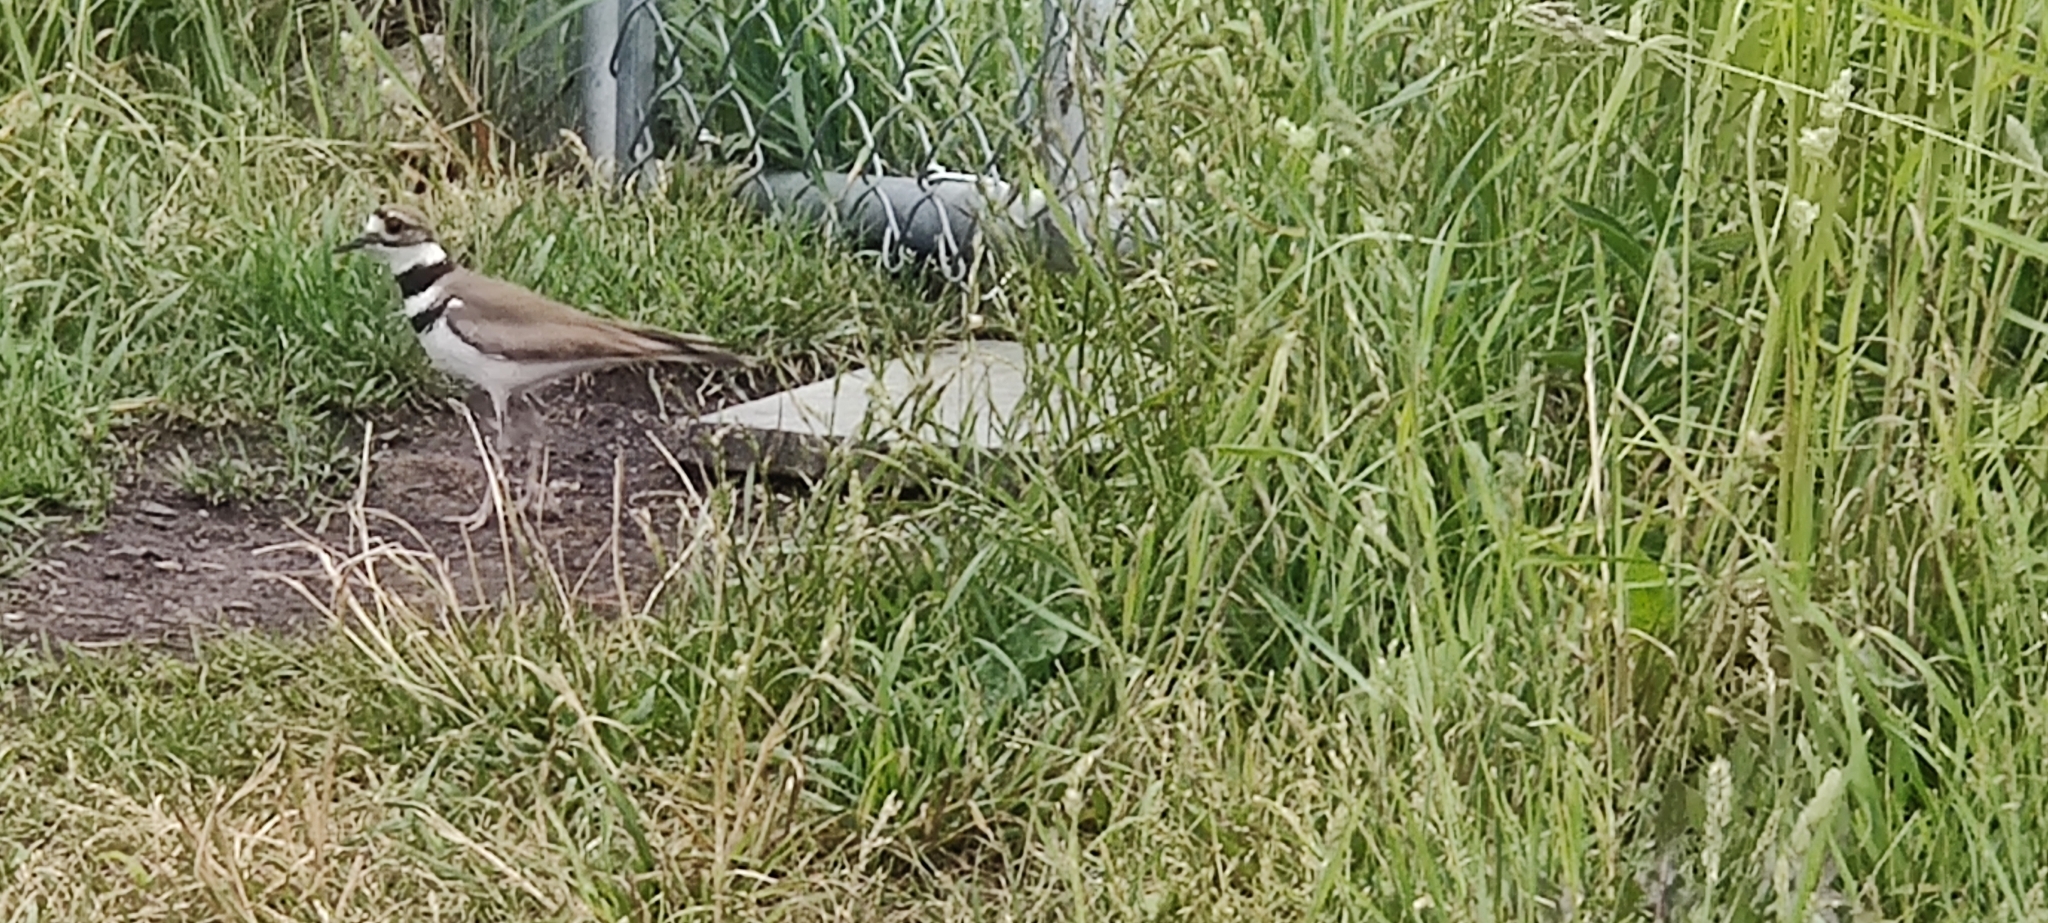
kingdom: Animalia
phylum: Chordata
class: Aves
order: Charadriiformes
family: Charadriidae
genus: Charadrius
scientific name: Charadrius vociferus
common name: Killdeer
